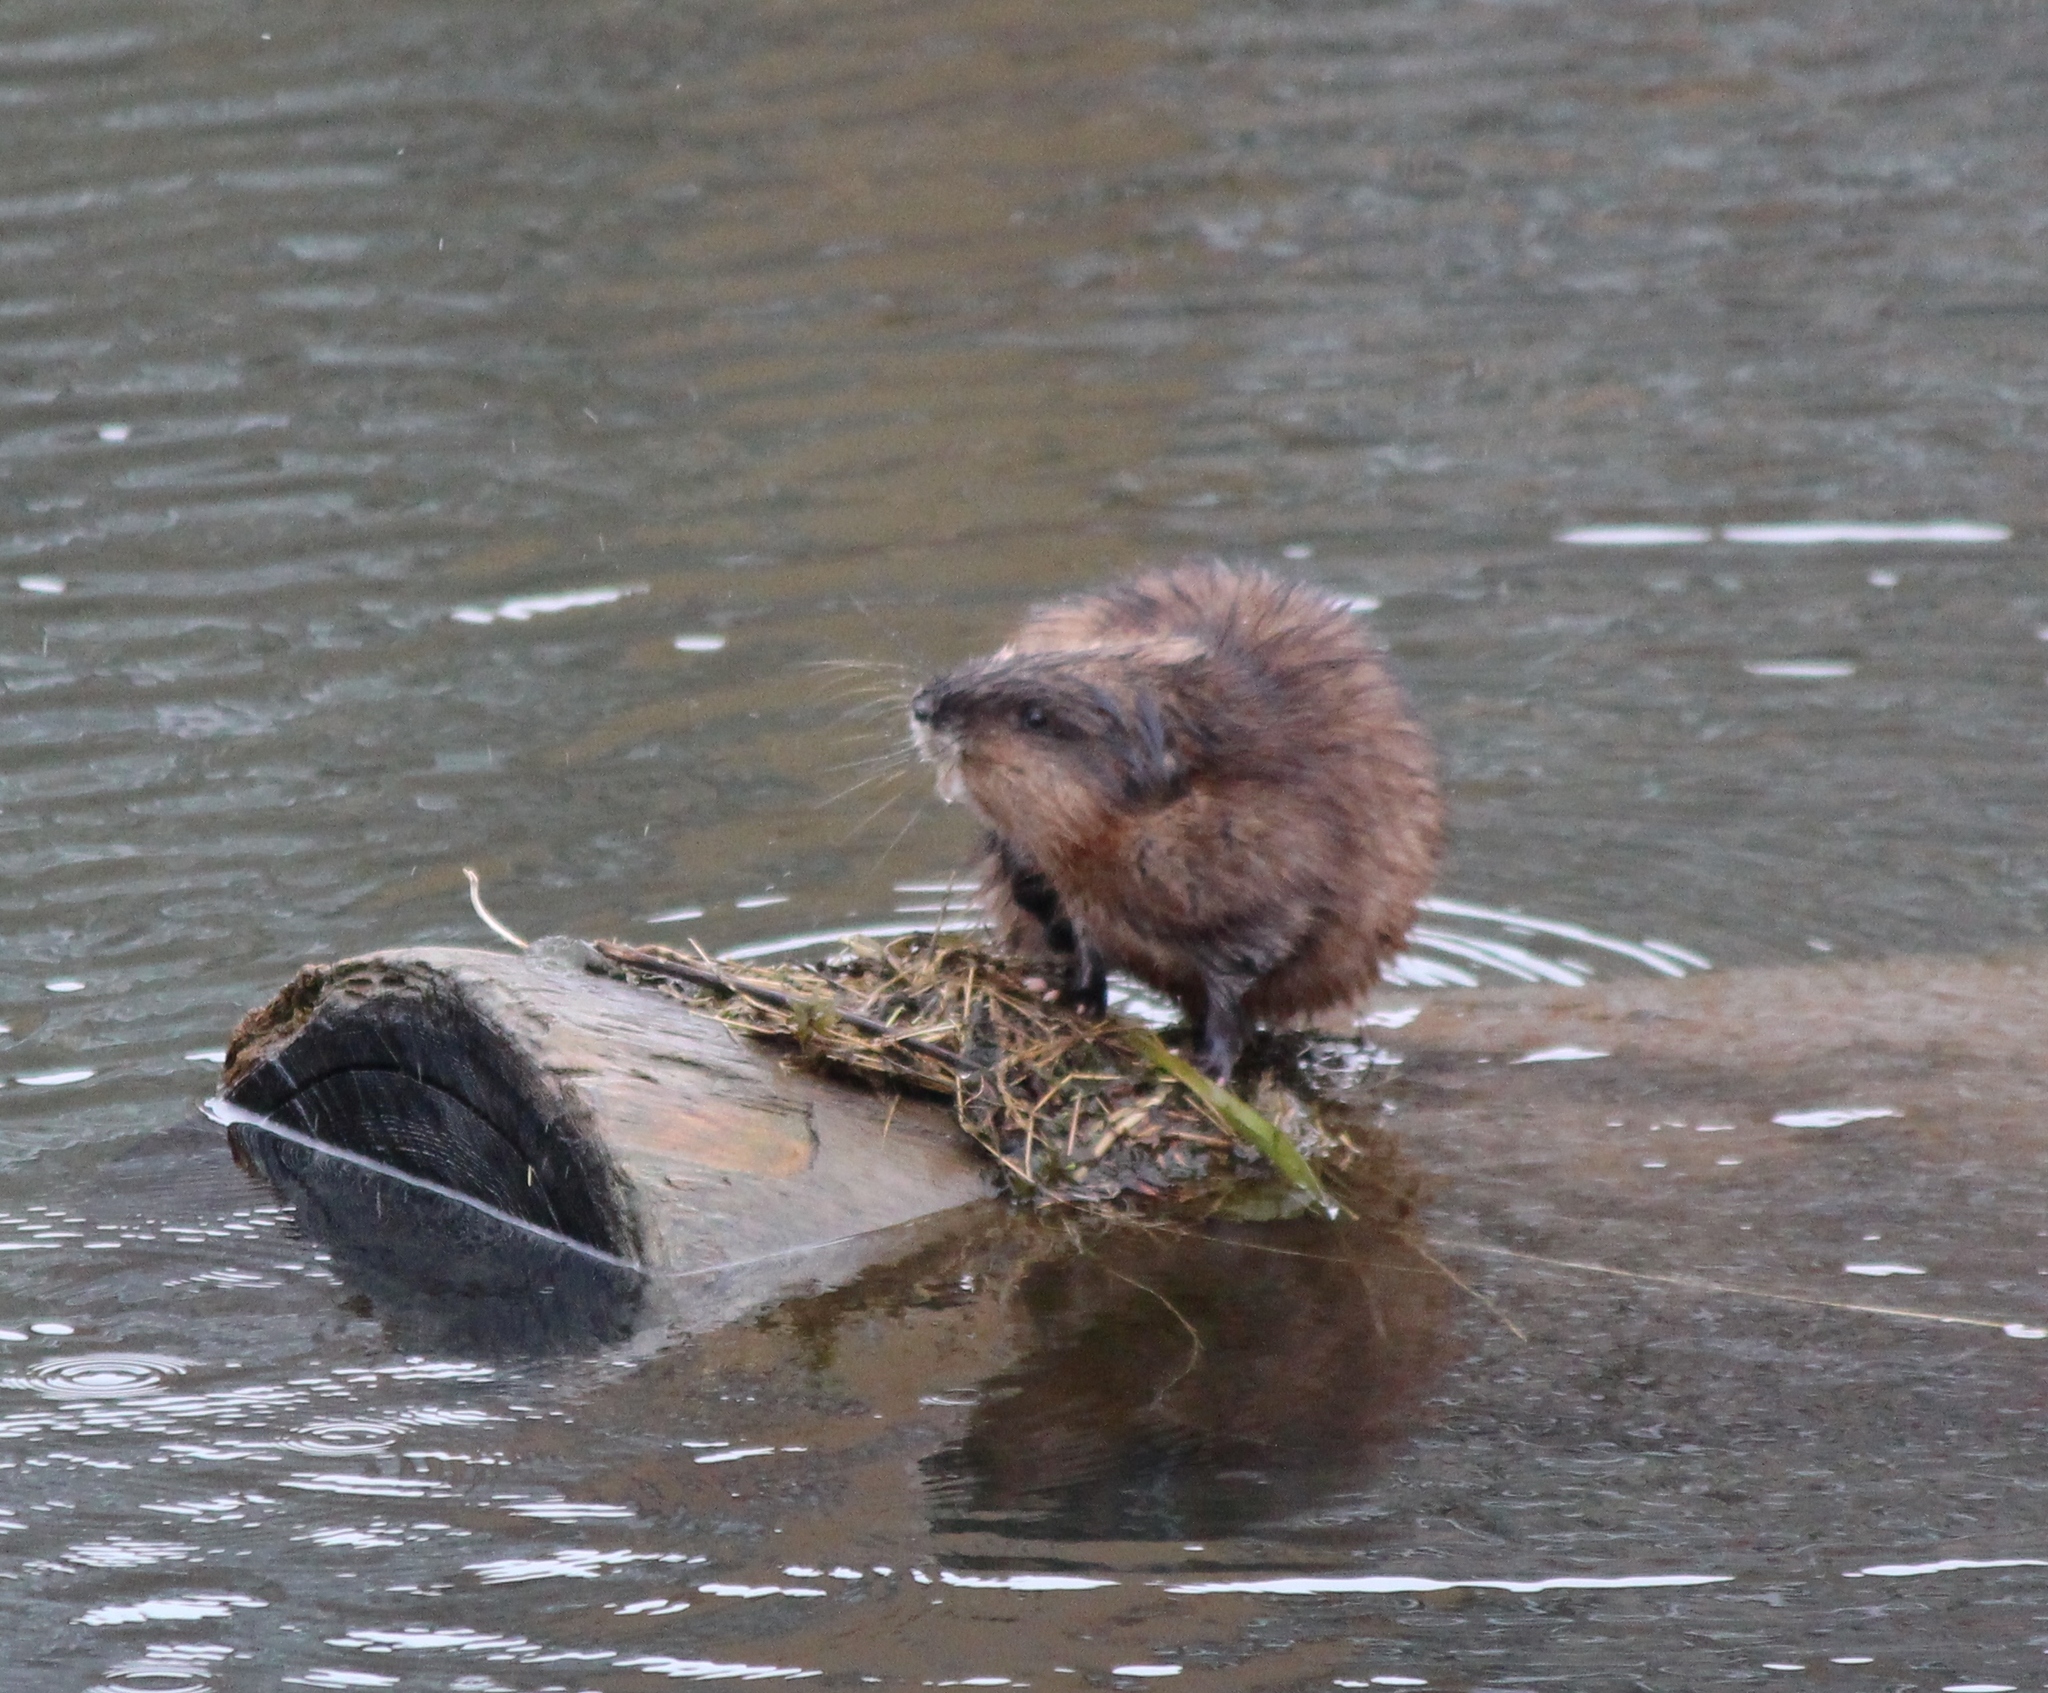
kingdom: Animalia
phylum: Chordata
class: Mammalia
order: Rodentia
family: Cricetidae
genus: Ondatra
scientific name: Ondatra zibethicus
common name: Muskrat
